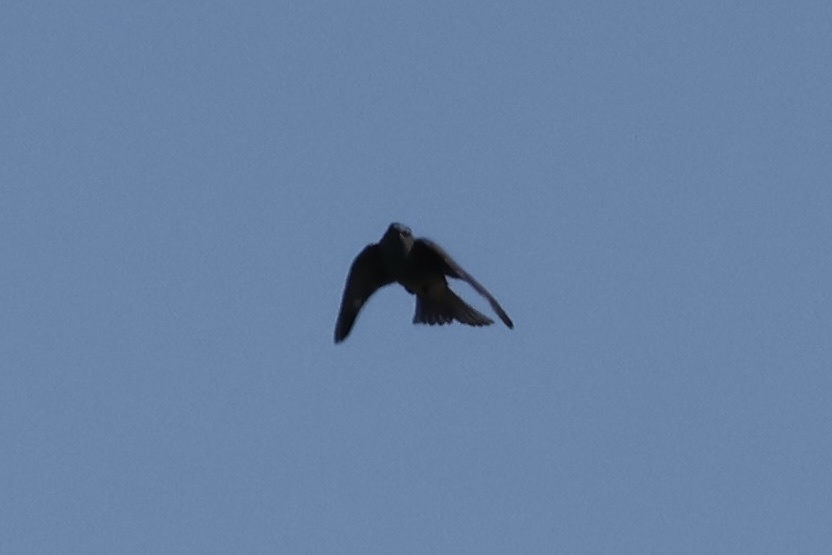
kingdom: Animalia
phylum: Chordata
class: Aves
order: Passeriformes
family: Turdidae
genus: Sialia
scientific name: Sialia currucoides
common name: Mountain bluebird
